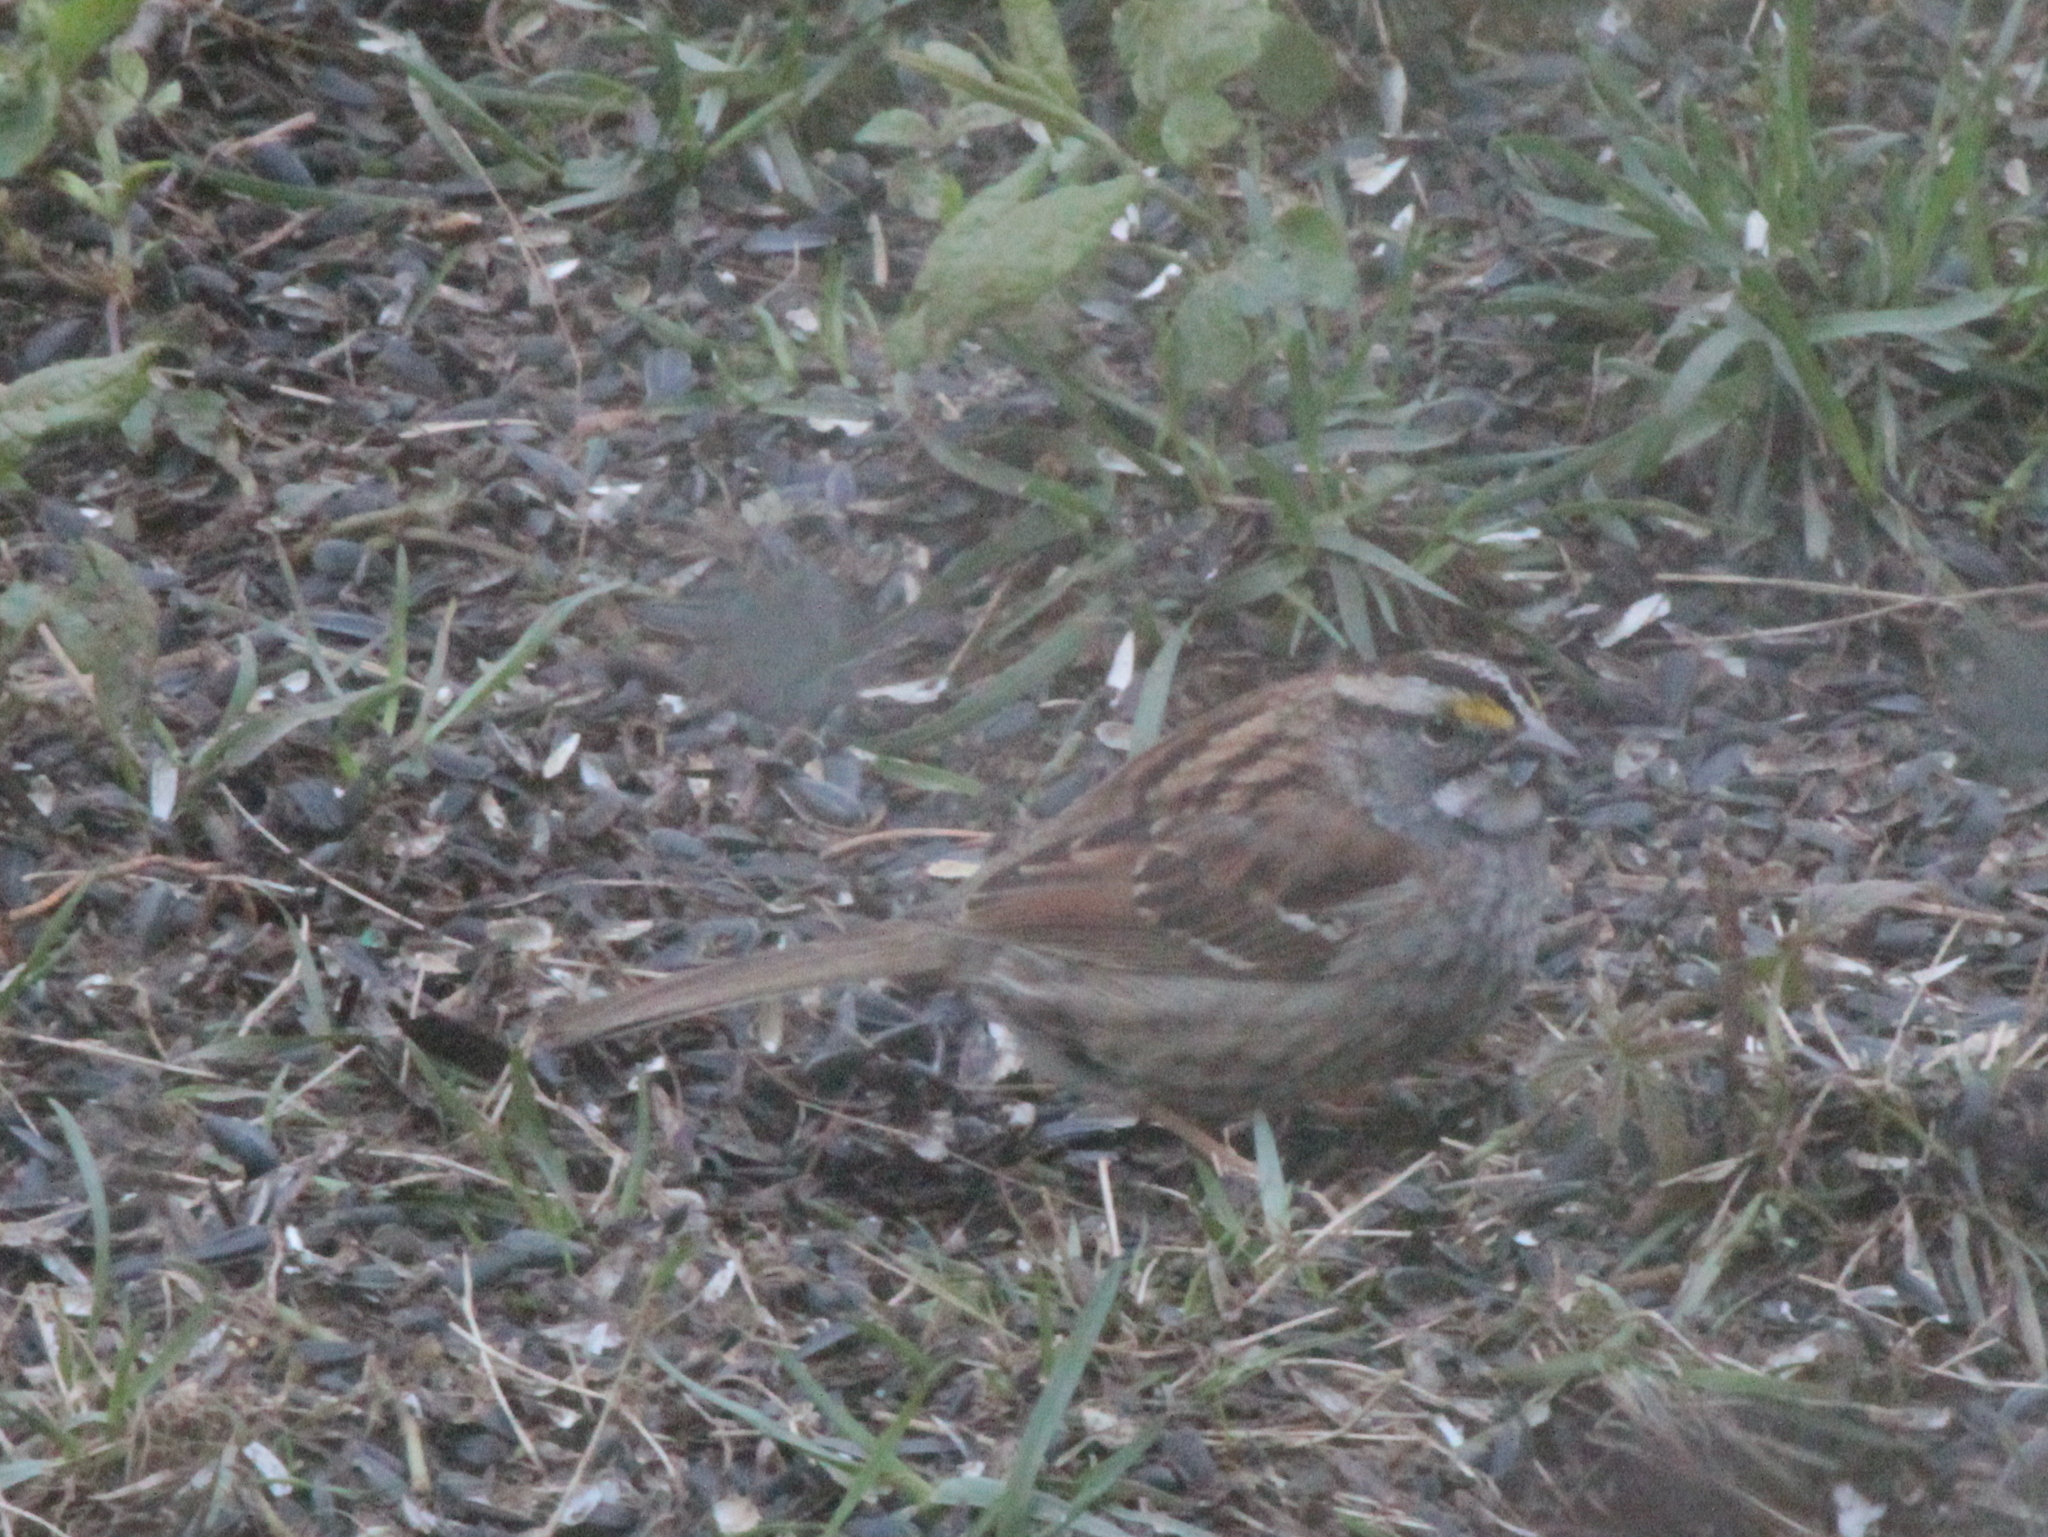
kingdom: Animalia
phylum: Chordata
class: Aves
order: Passeriformes
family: Passerellidae
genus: Zonotrichia
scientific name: Zonotrichia albicollis
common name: White-throated sparrow
